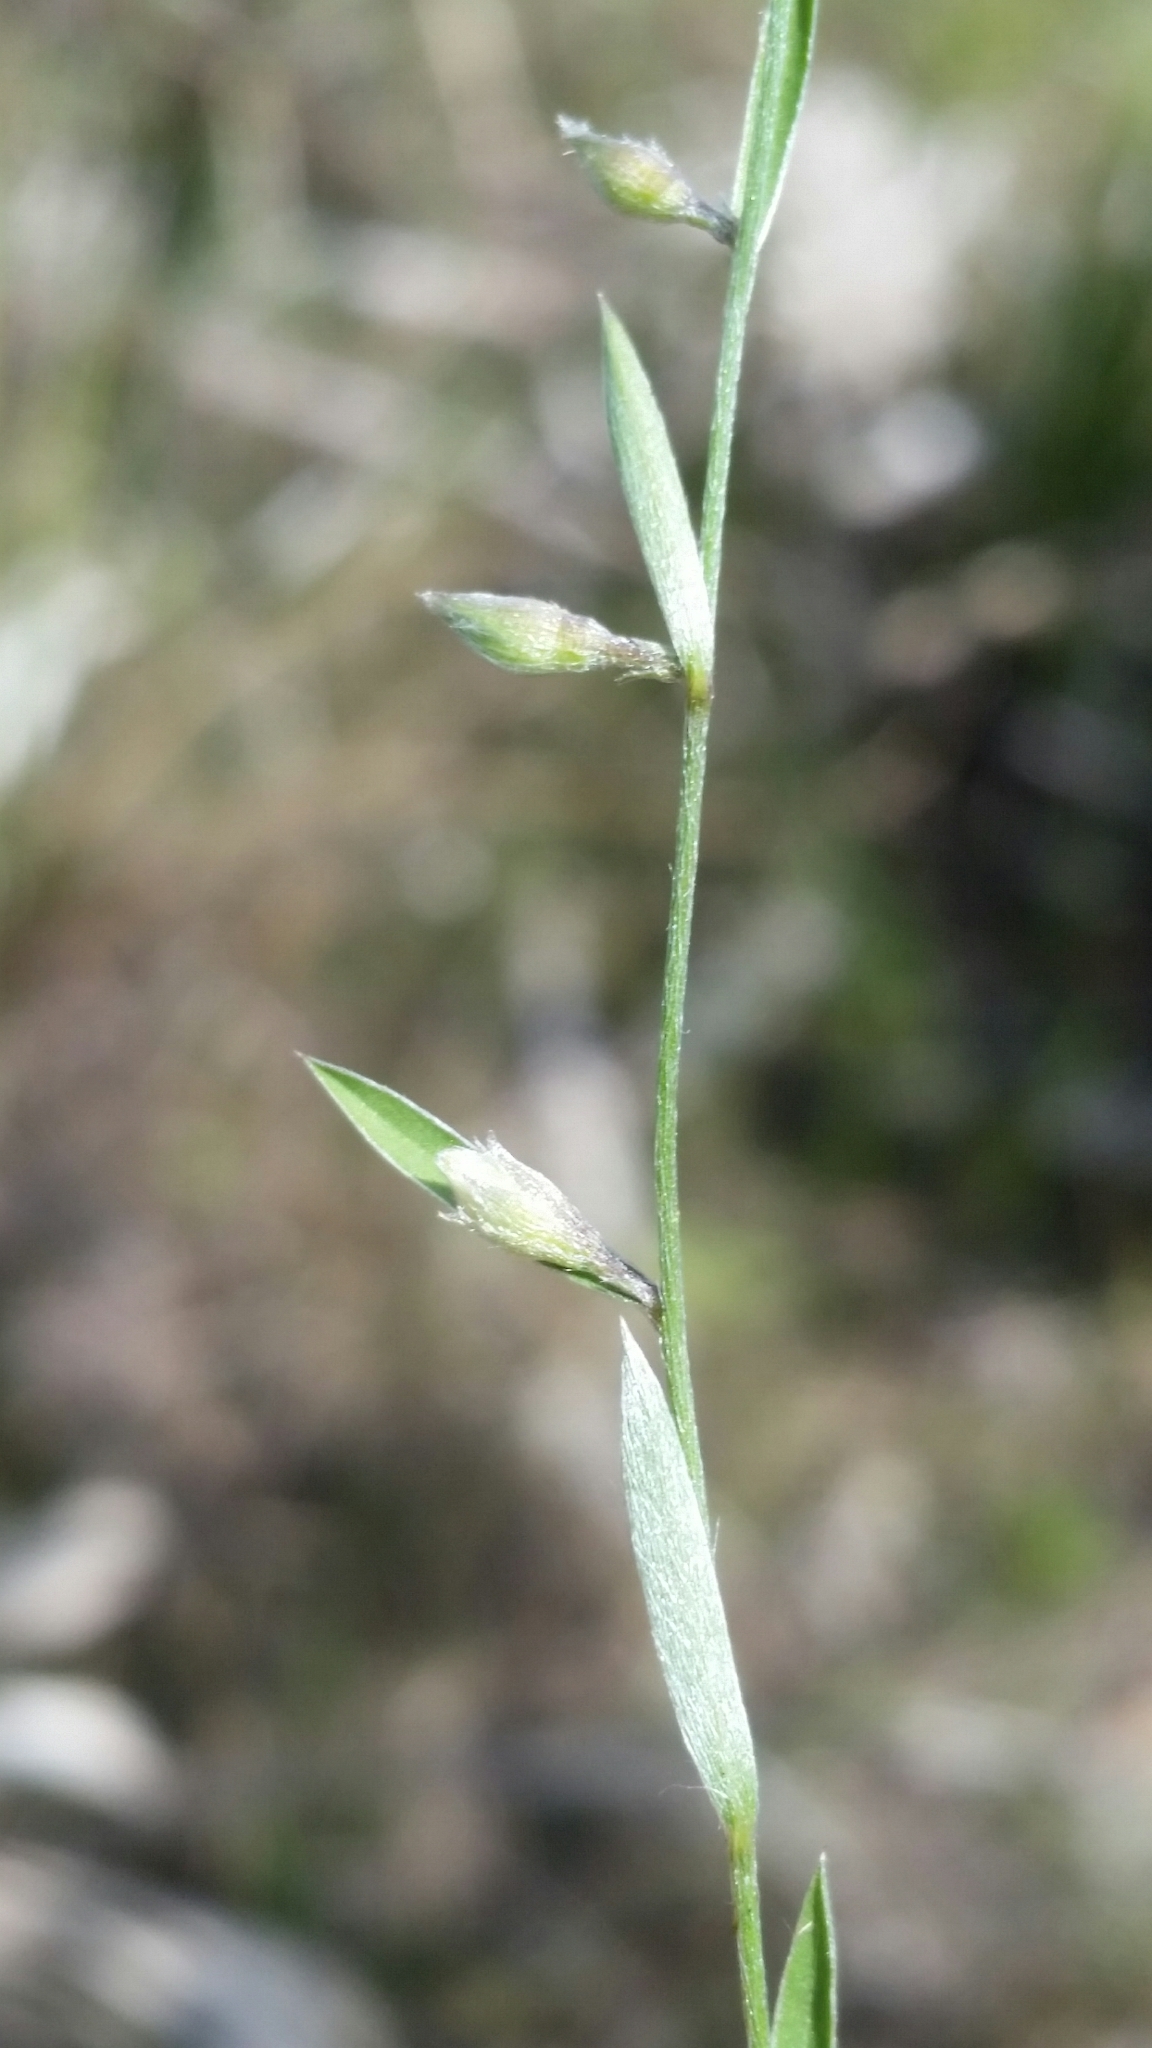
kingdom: Plantae
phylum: Tracheophyta
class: Magnoliopsida
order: Solanales
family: Convolvulaceae
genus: Evolvulus
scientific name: Evolvulus sericeus
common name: Blue dots
